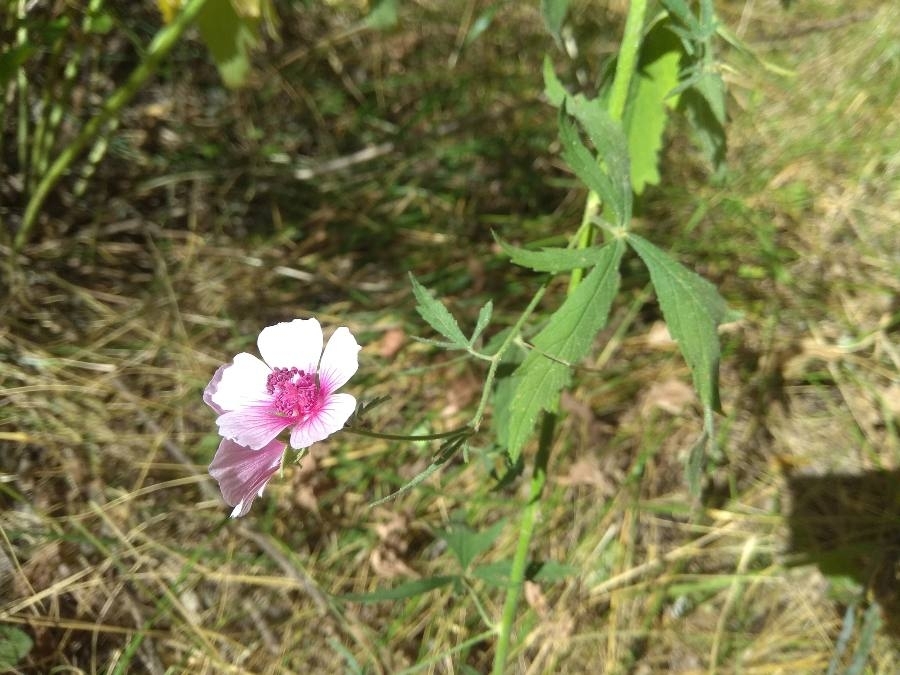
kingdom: Plantae
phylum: Tracheophyta
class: Magnoliopsida
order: Malvales
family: Malvaceae
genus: Althaea
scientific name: Althaea cannabina
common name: Palm-leaf marshmallow
